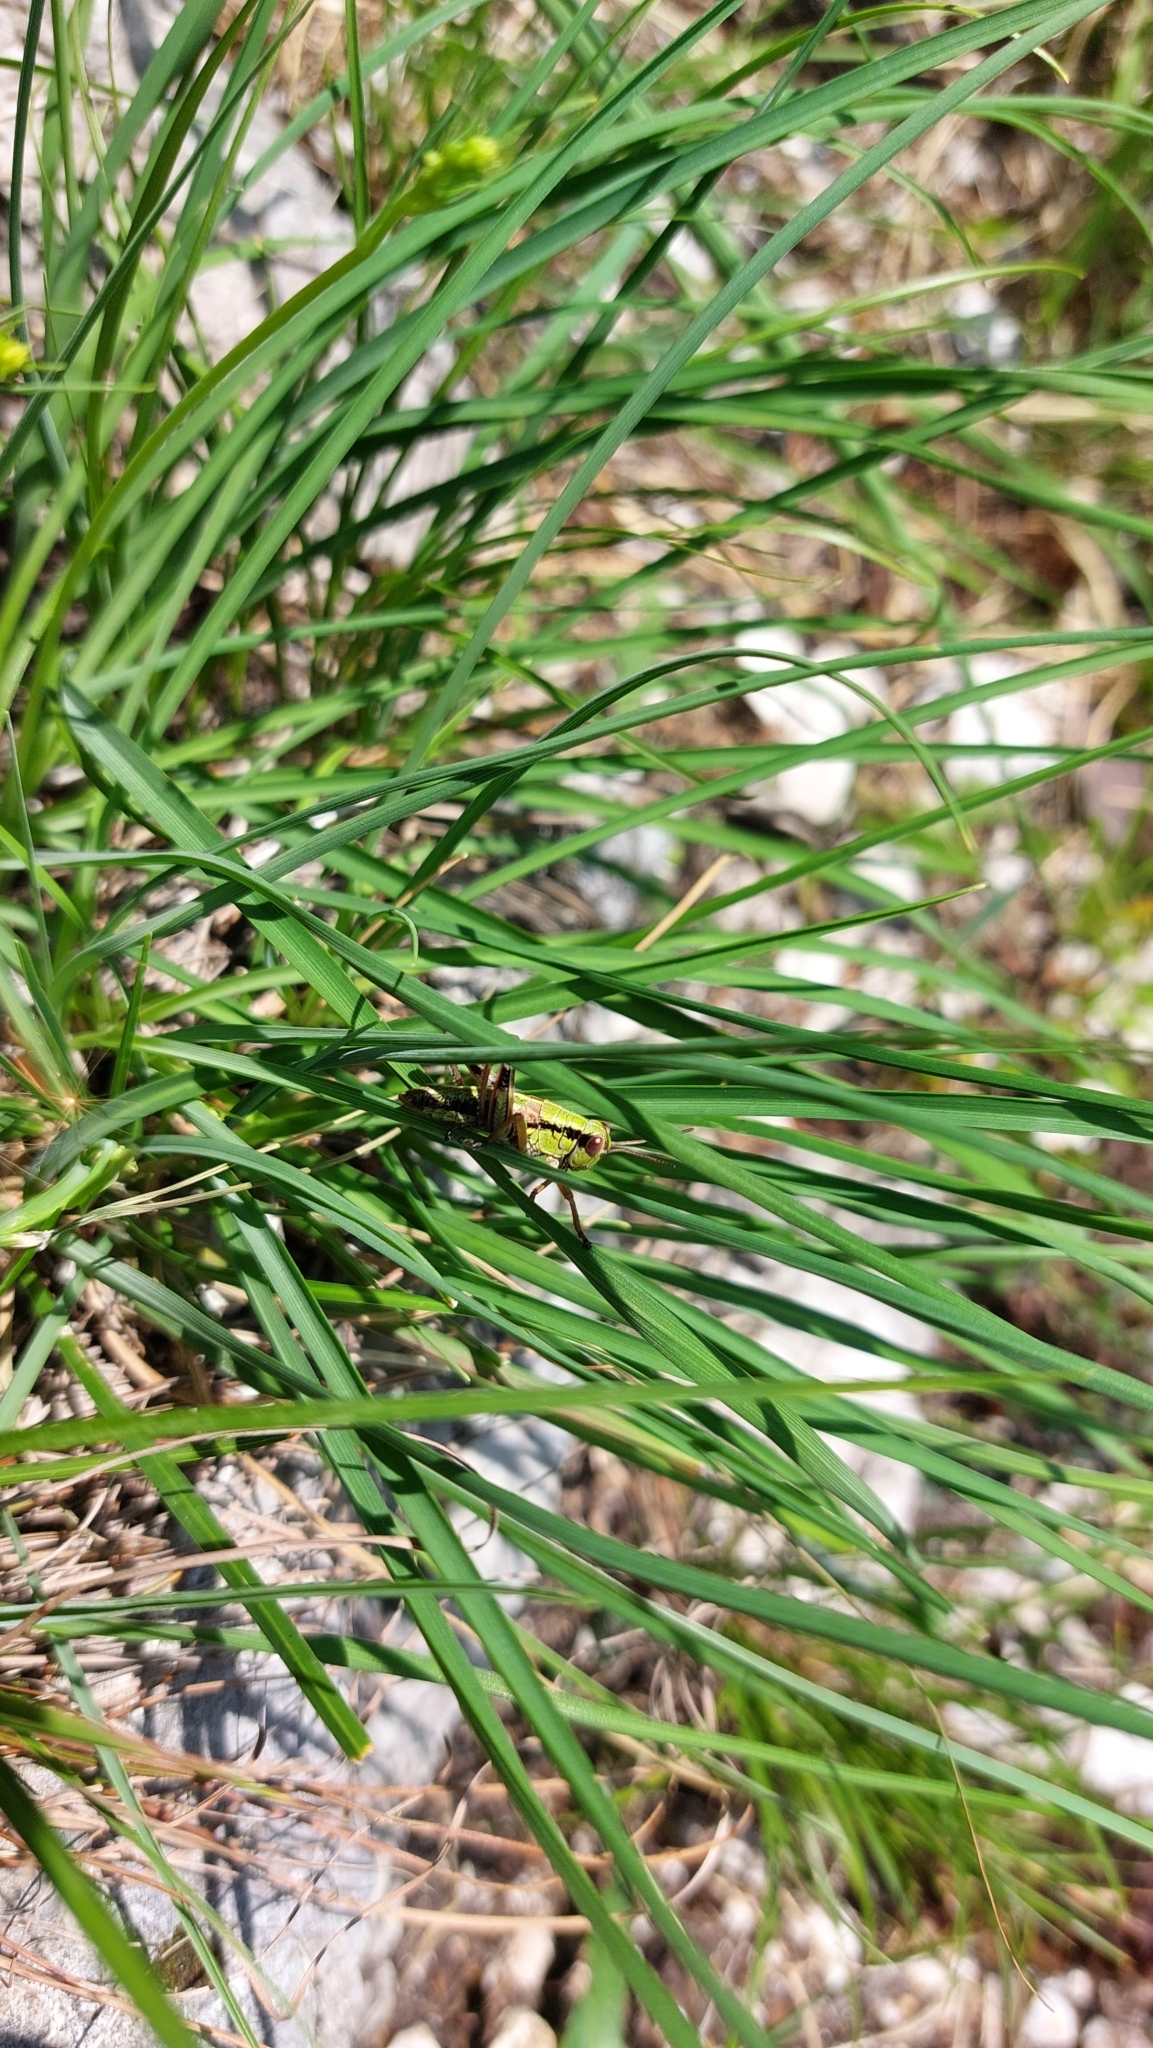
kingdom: Animalia
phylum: Arthropoda
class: Insecta
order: Orthoptera
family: Acrididae
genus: Miramella
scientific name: Miramella alpina
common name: Green mountain grasshopper
